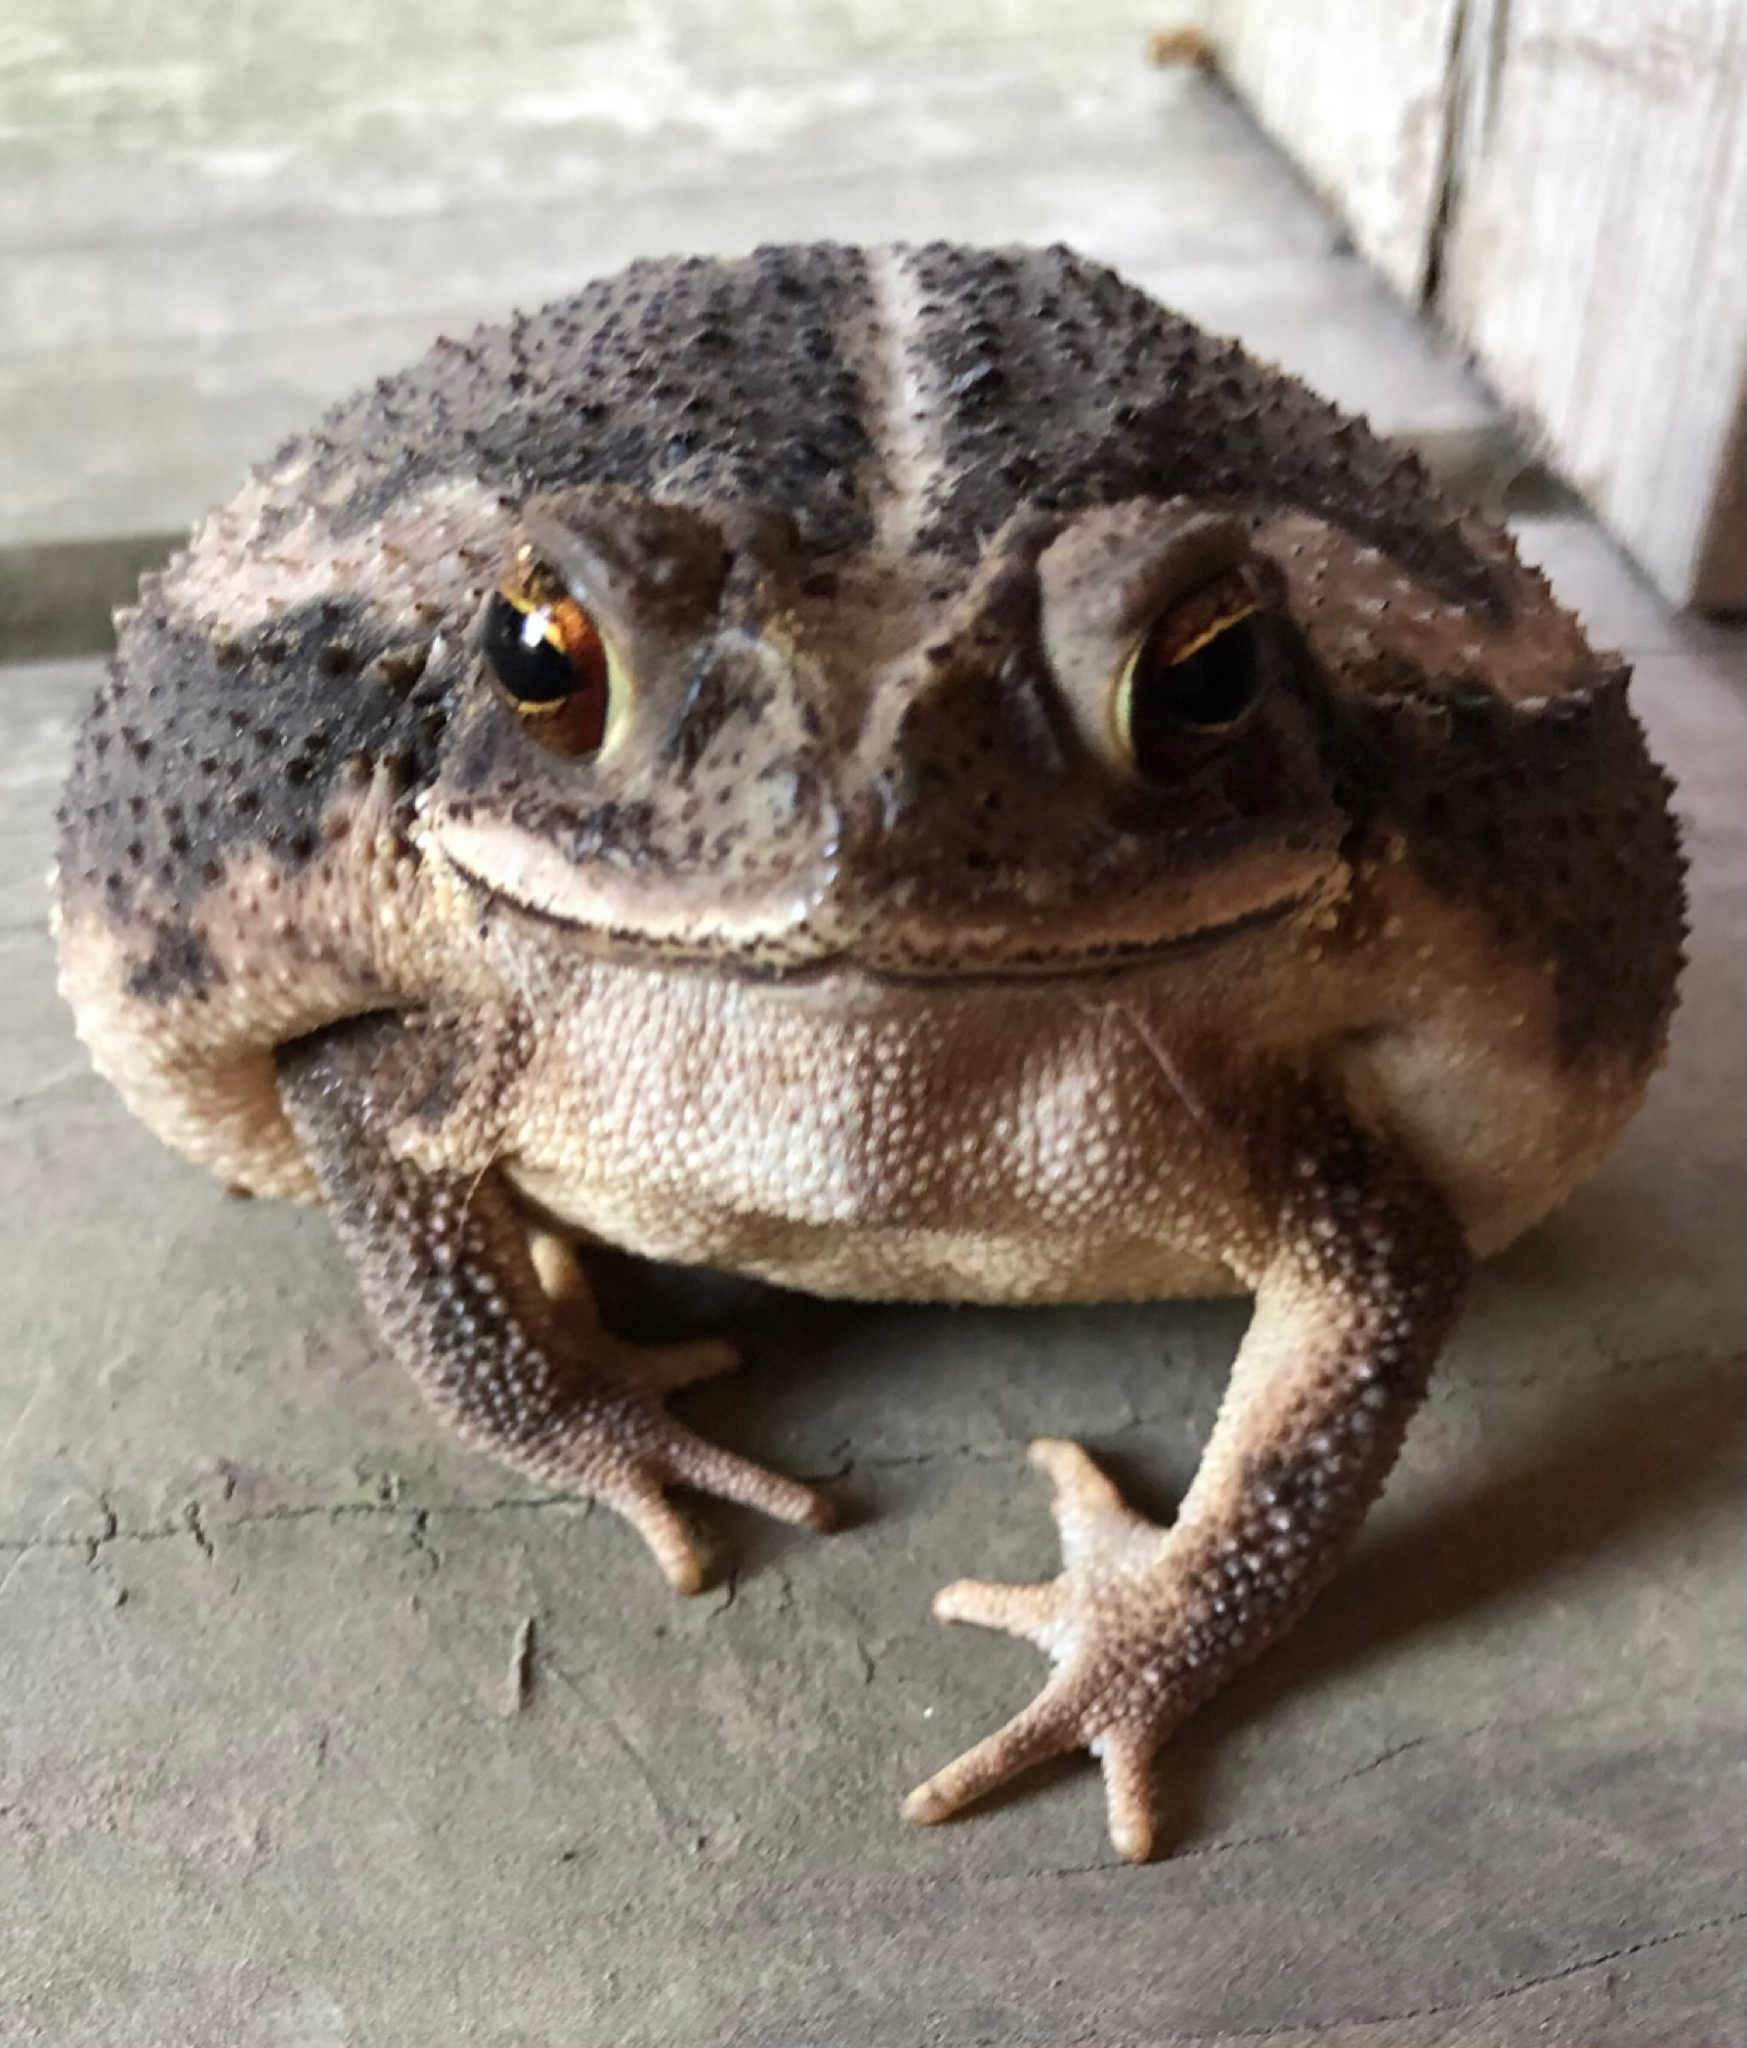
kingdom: Animalia
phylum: Chordata
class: Amphibia
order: Anura
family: Bufonidae
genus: Incilius
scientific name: Incilius nebulifer
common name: Gulf coast toad
